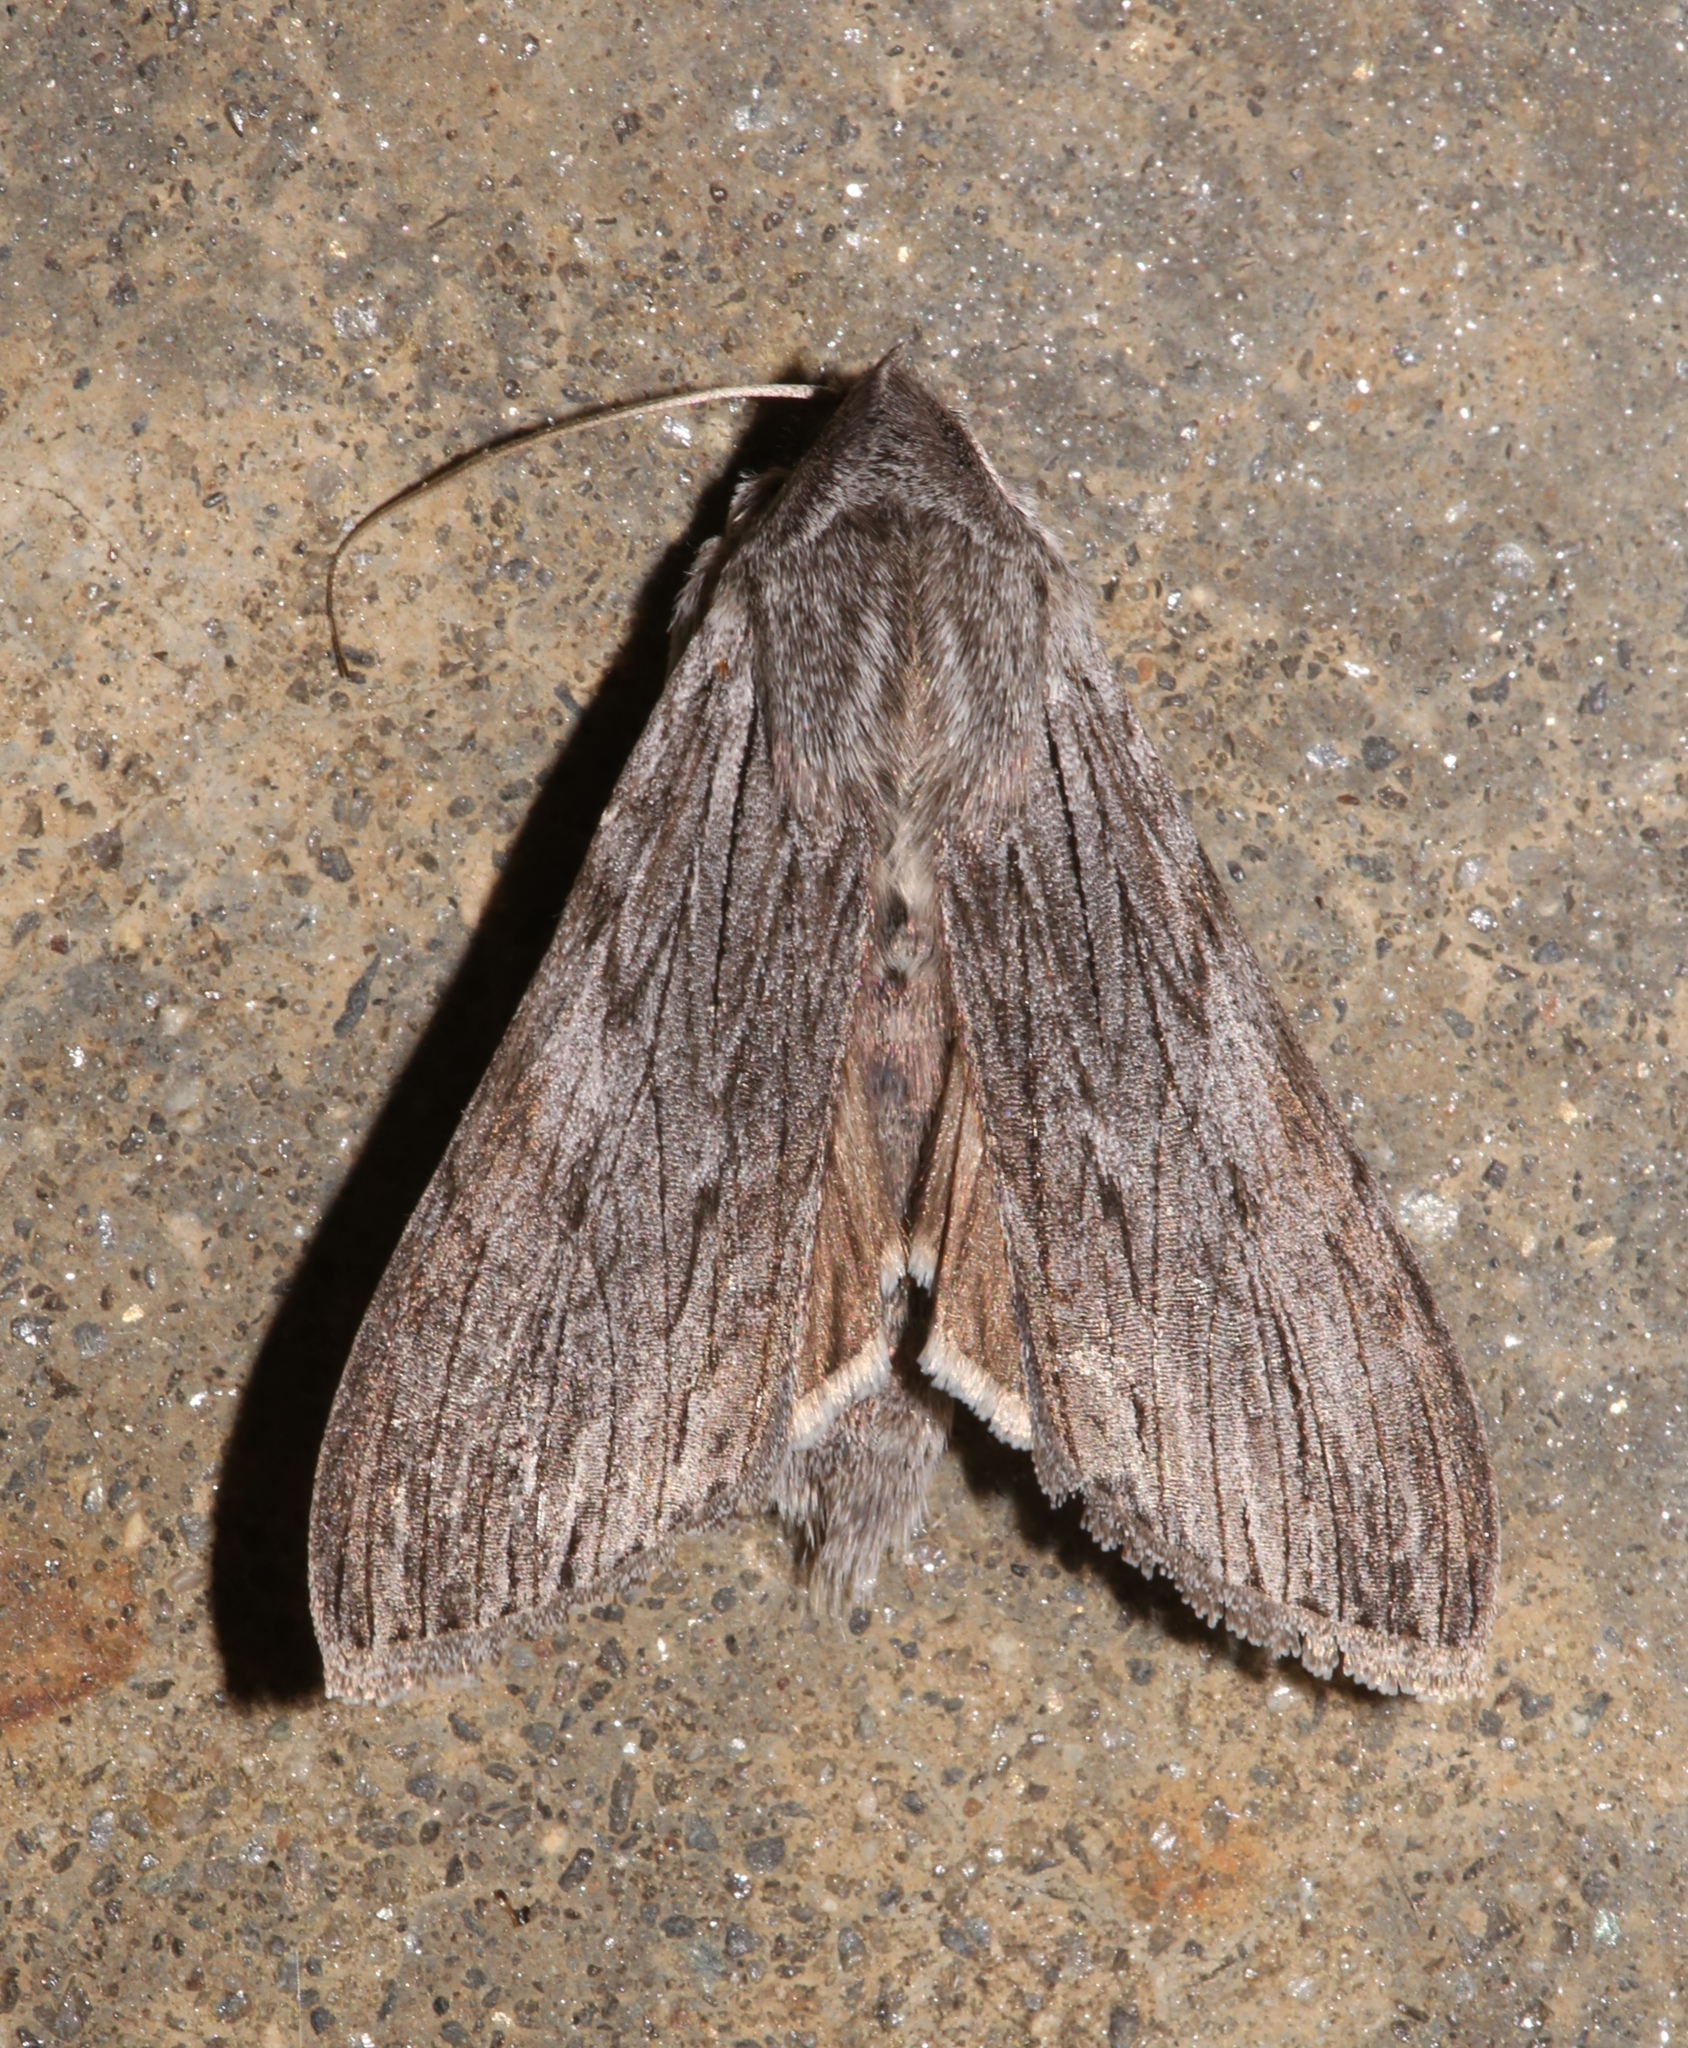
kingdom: Animalia
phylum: Arthropoda
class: Insecta
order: Lepidoptera
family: Noctuidae
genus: Cucullia
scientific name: Cucullia intermedia
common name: Goldenrod cutworm
